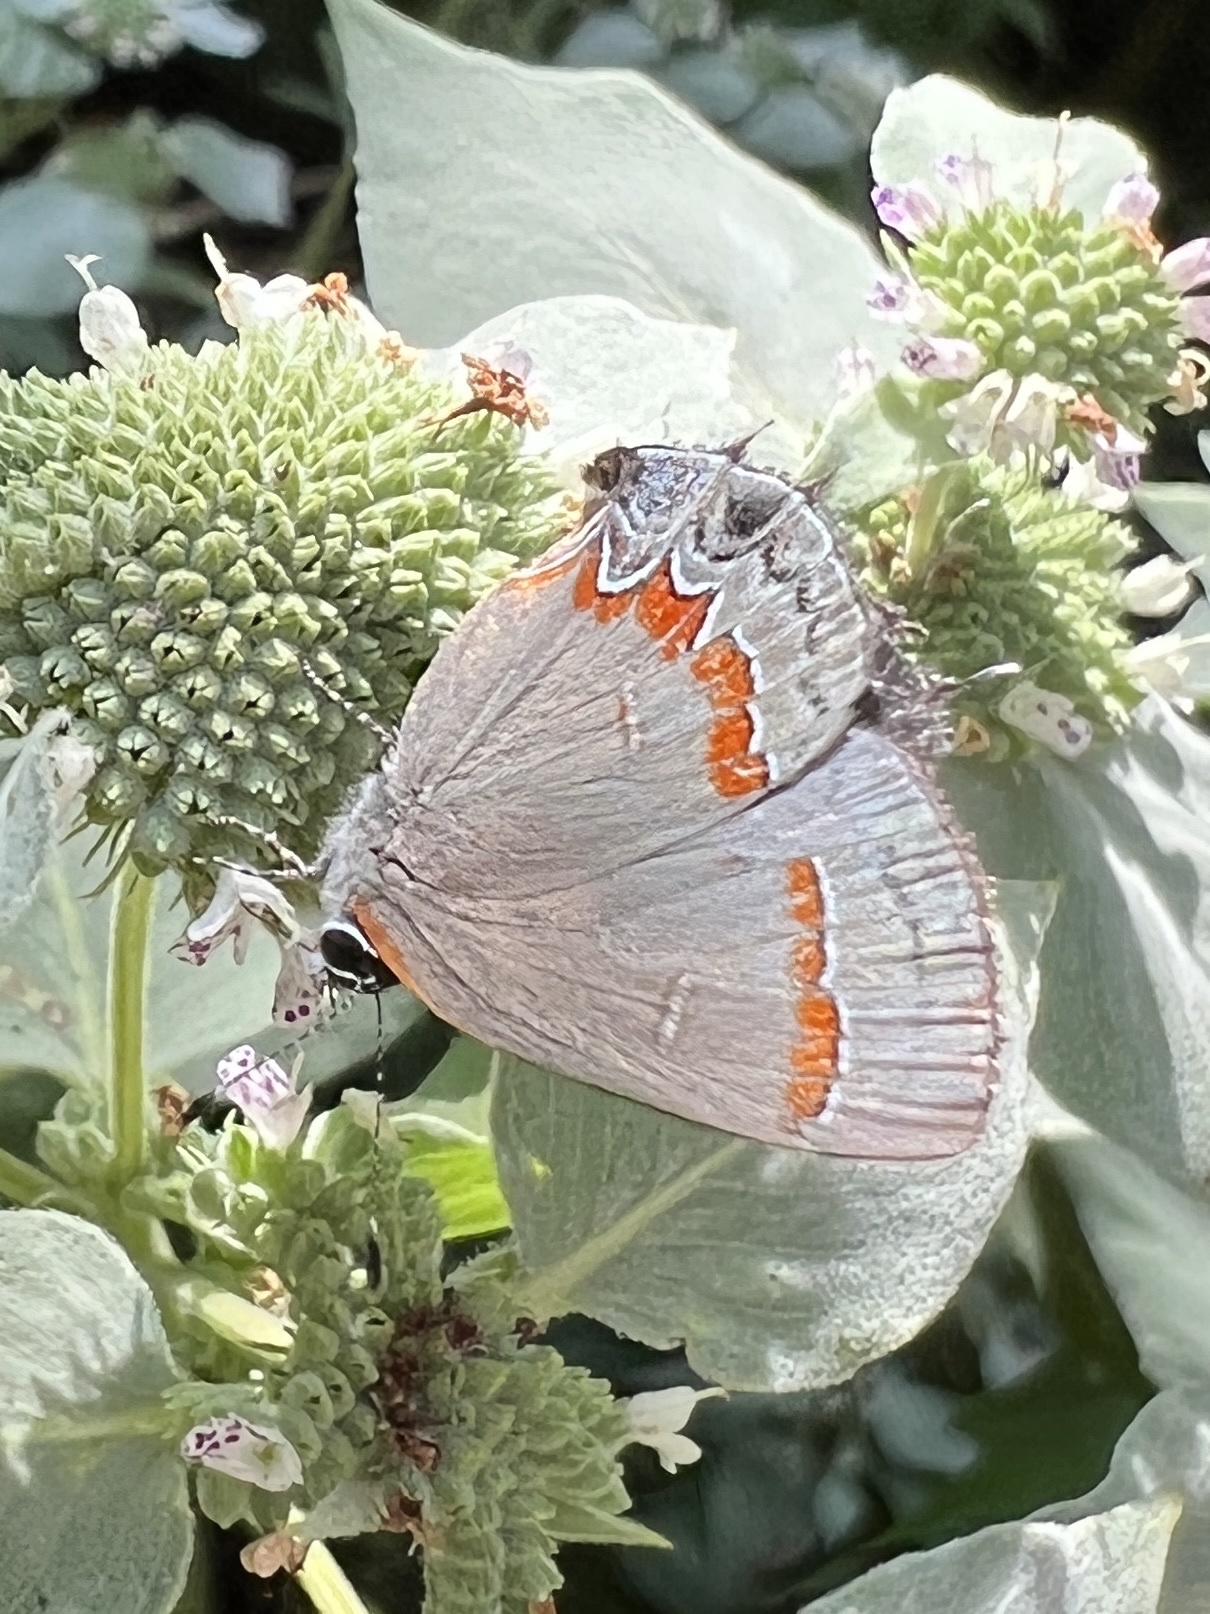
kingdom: Animalia
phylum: Arthropoda
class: Insecta
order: Lepidoptera
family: Lycaenidae
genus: Calycopis
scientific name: Calycopis cecrops
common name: Red-banded hairstreak
